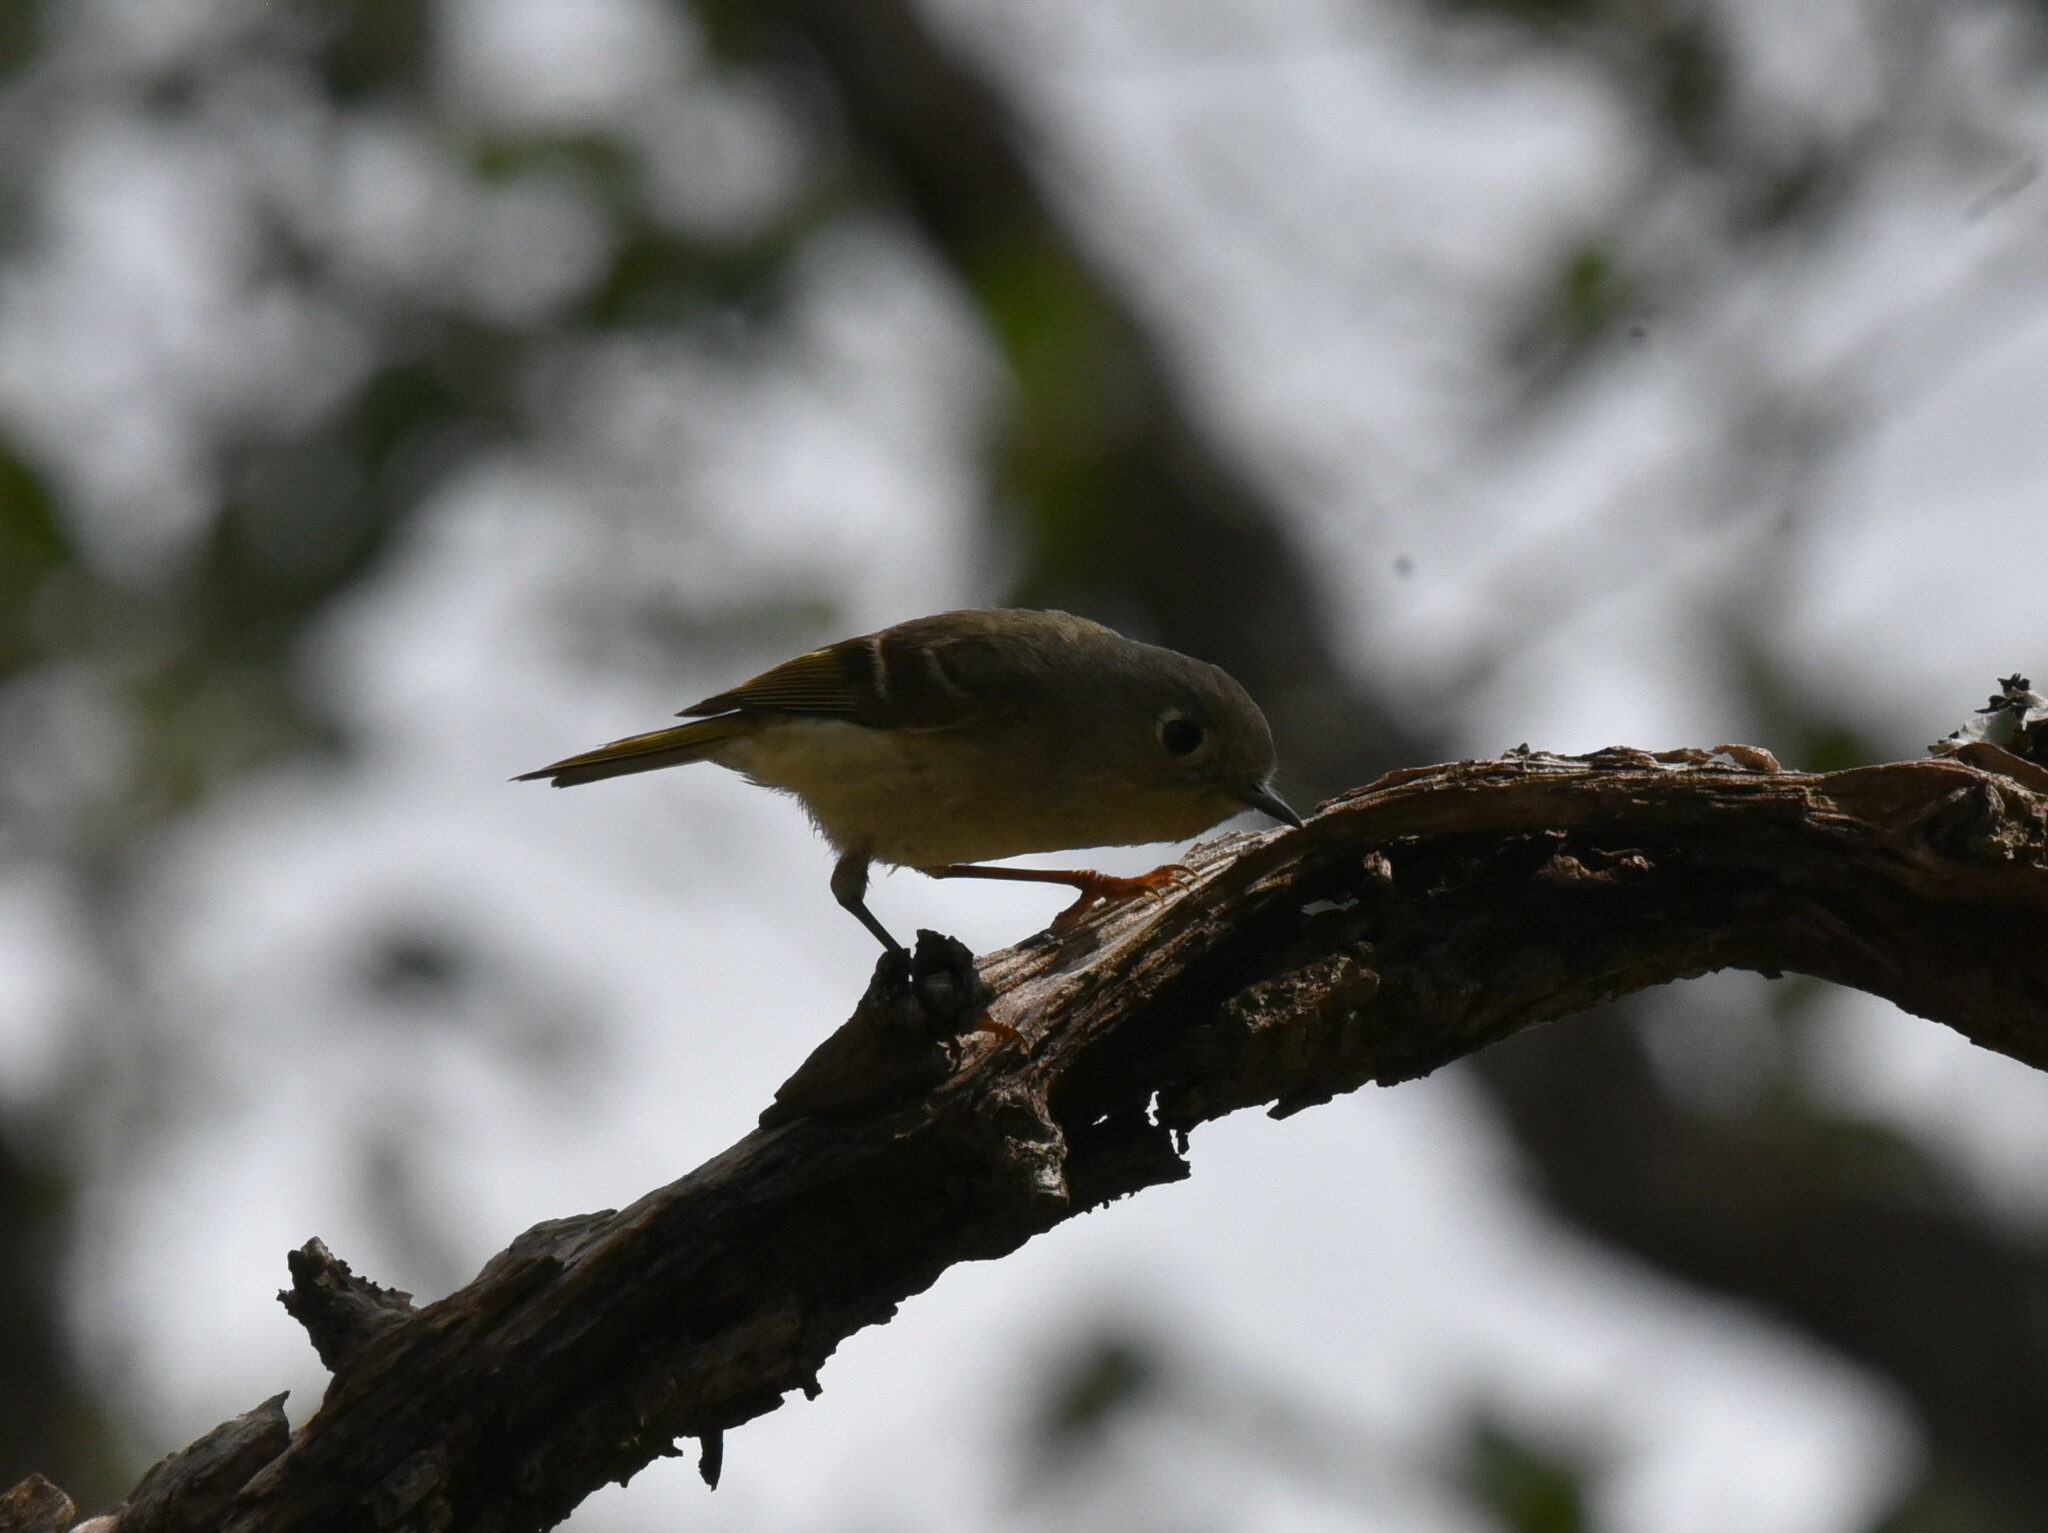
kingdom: Animalia
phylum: Chordata
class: Aves
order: Passeriformes
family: Regulidae
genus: Regulus
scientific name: Regulus calendula
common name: Ruby-crowned kinglet
